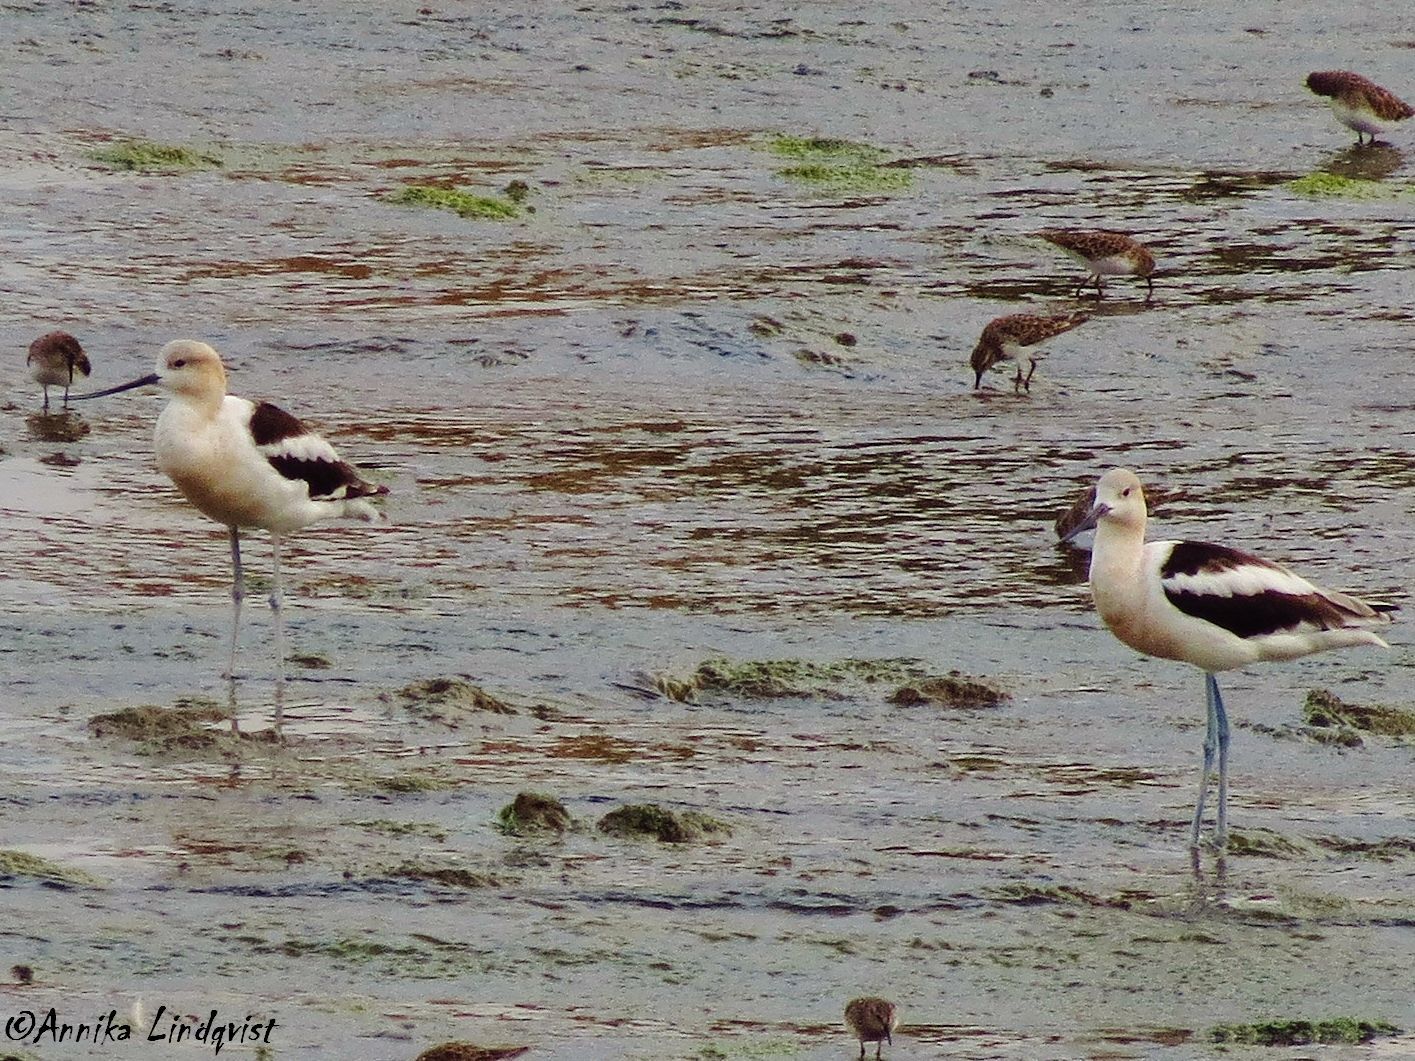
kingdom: Animalia
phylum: Chordata
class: Aves
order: Charadriiformes
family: Recurvirostridae
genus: Recurvirostra
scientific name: Recurvirostra americana
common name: American avocet
